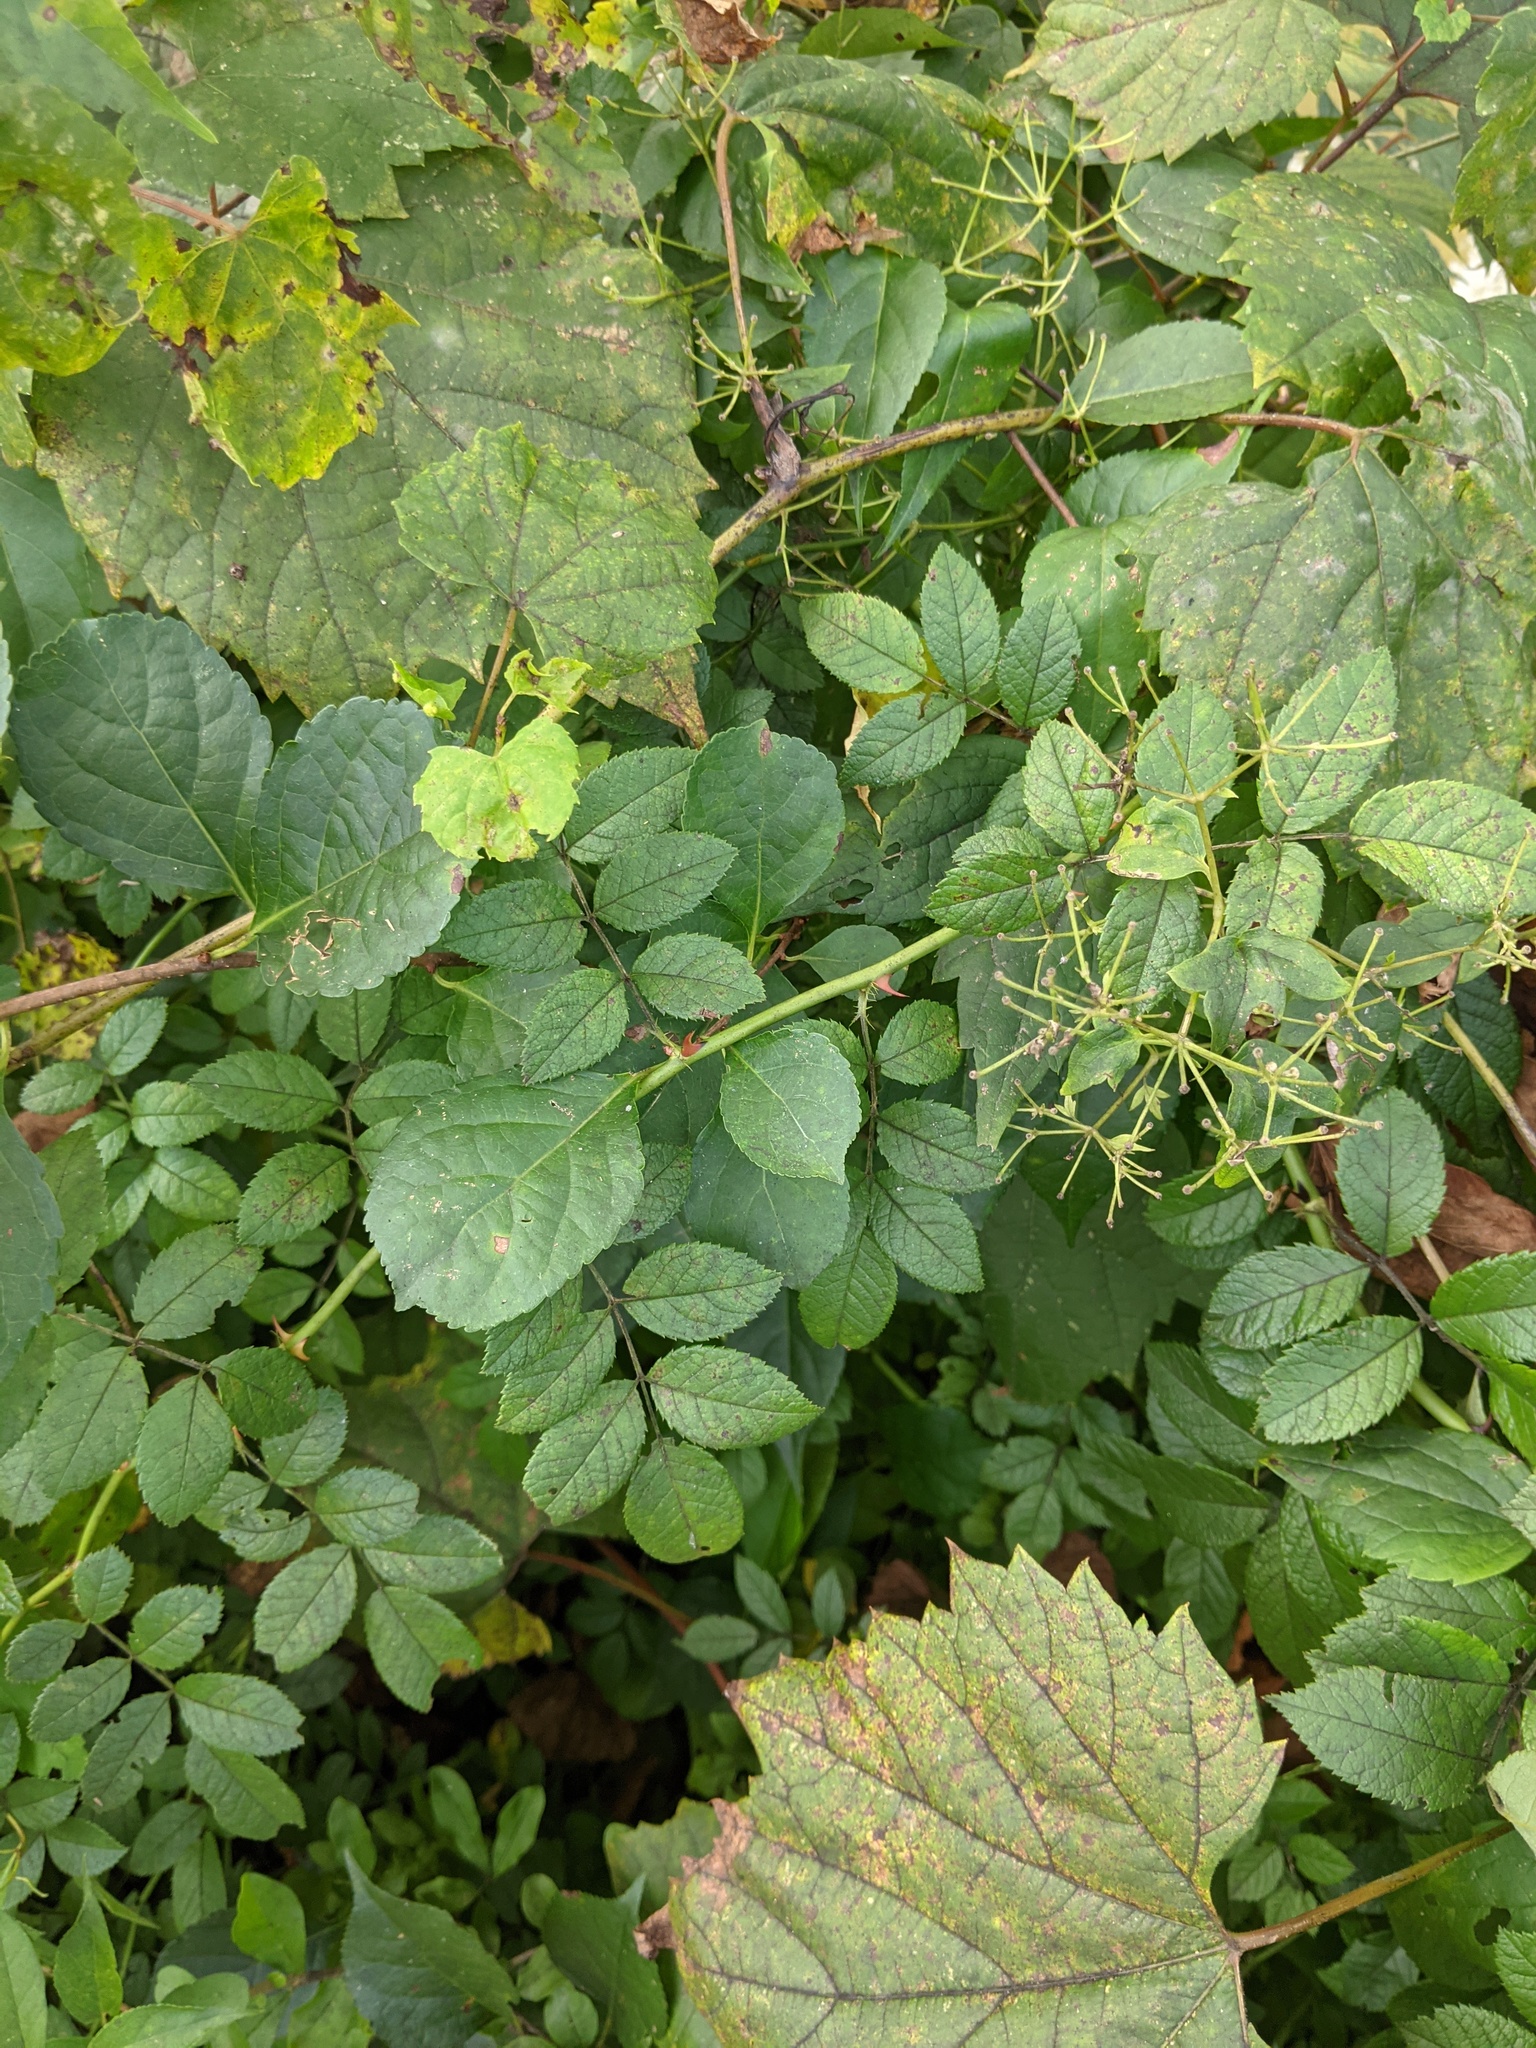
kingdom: Plantae
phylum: Tracheophyta
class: Magnoliopsida
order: Rosales
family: Rosaceae
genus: Rosa
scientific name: Rosa multiflora
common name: Multiflora rose
